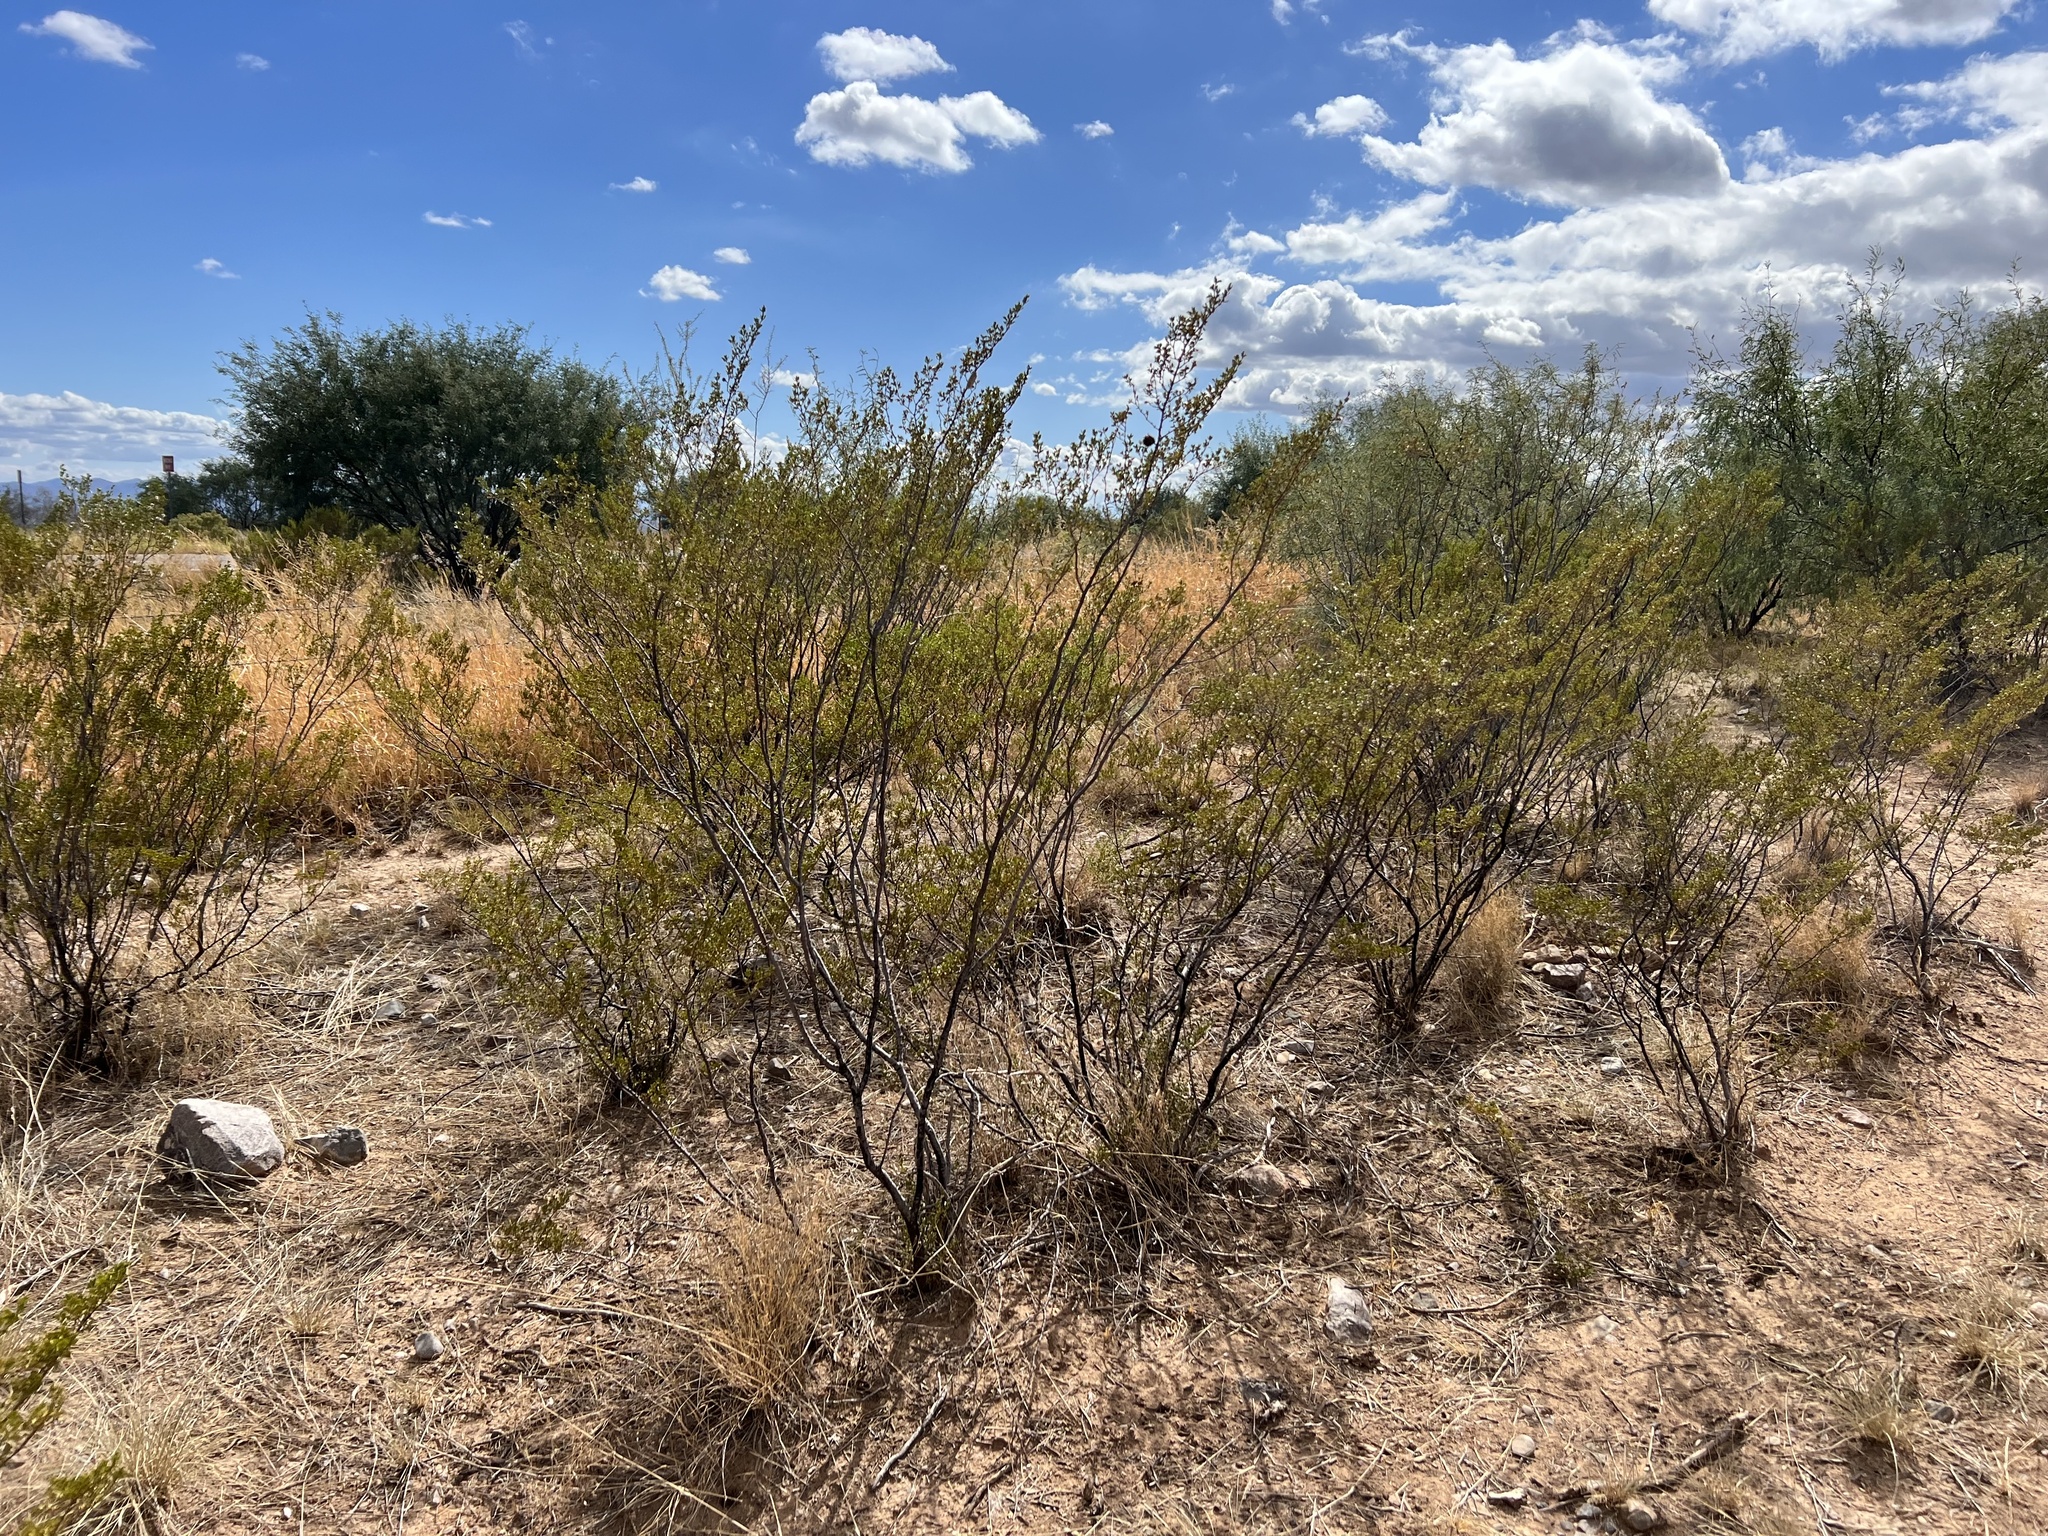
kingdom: Plantae
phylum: Tracheophyta
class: Magnoliopsida
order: Zygophyllales
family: Zygophyllaceae
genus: Larrea
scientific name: Larrea tridentata
